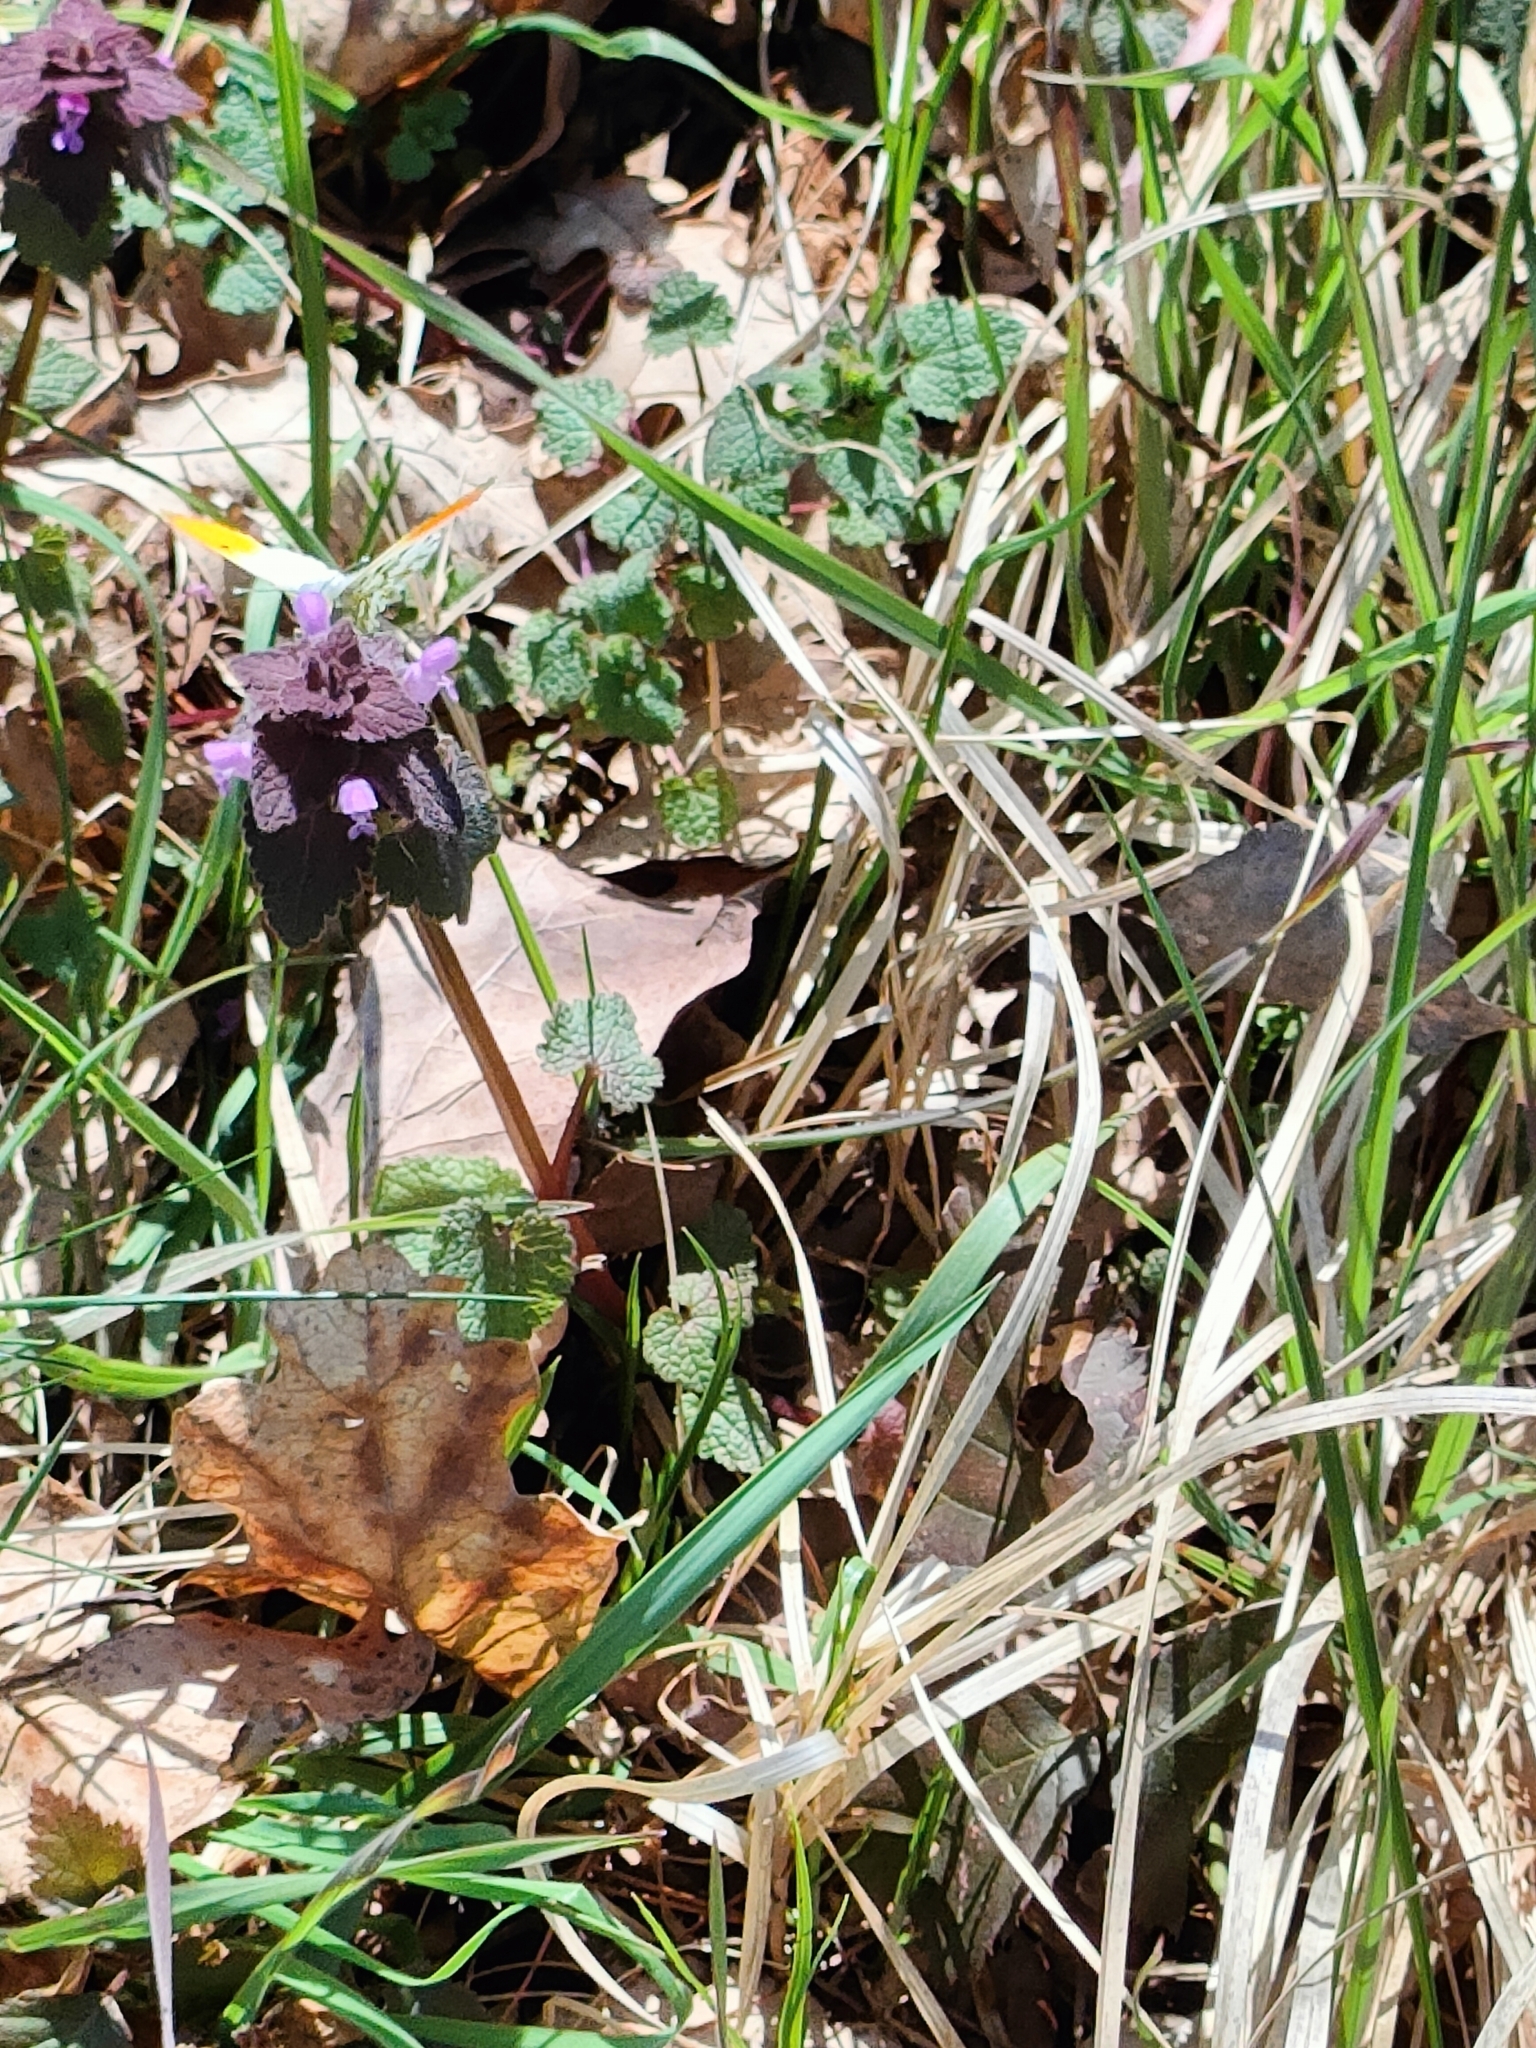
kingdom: Animalia
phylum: Arthropoda
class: Insecta
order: Lepidoptera
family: Pieridae
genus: Anthocharis
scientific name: Anthocharis cardamines
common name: Orange-tip
